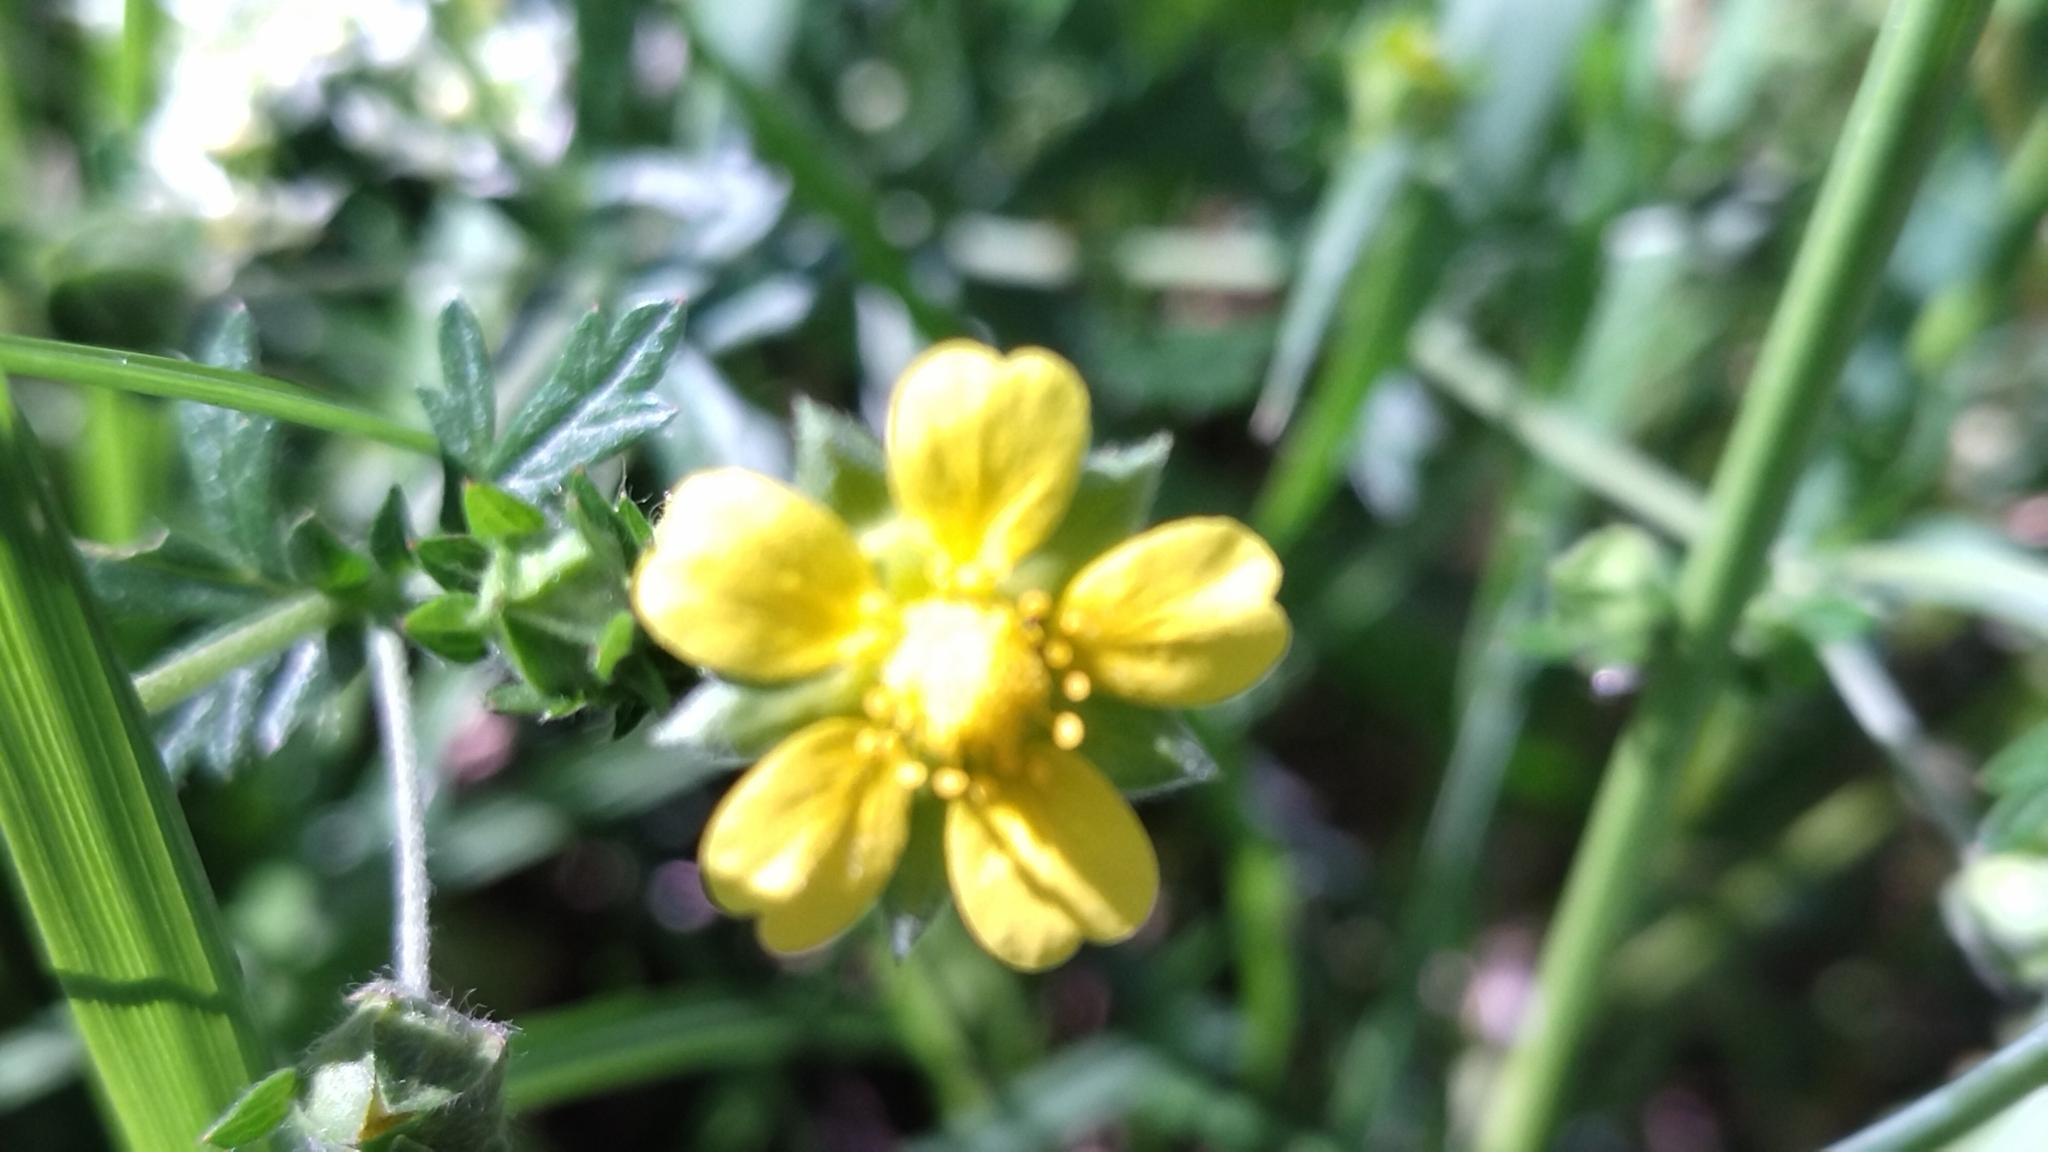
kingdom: Plantae
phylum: Tracheophyta
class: Magnoliopsida
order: Rosales
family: Rosaceae
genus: Potentilla
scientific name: Potentilla argentea
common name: Hoary cinquefoil
